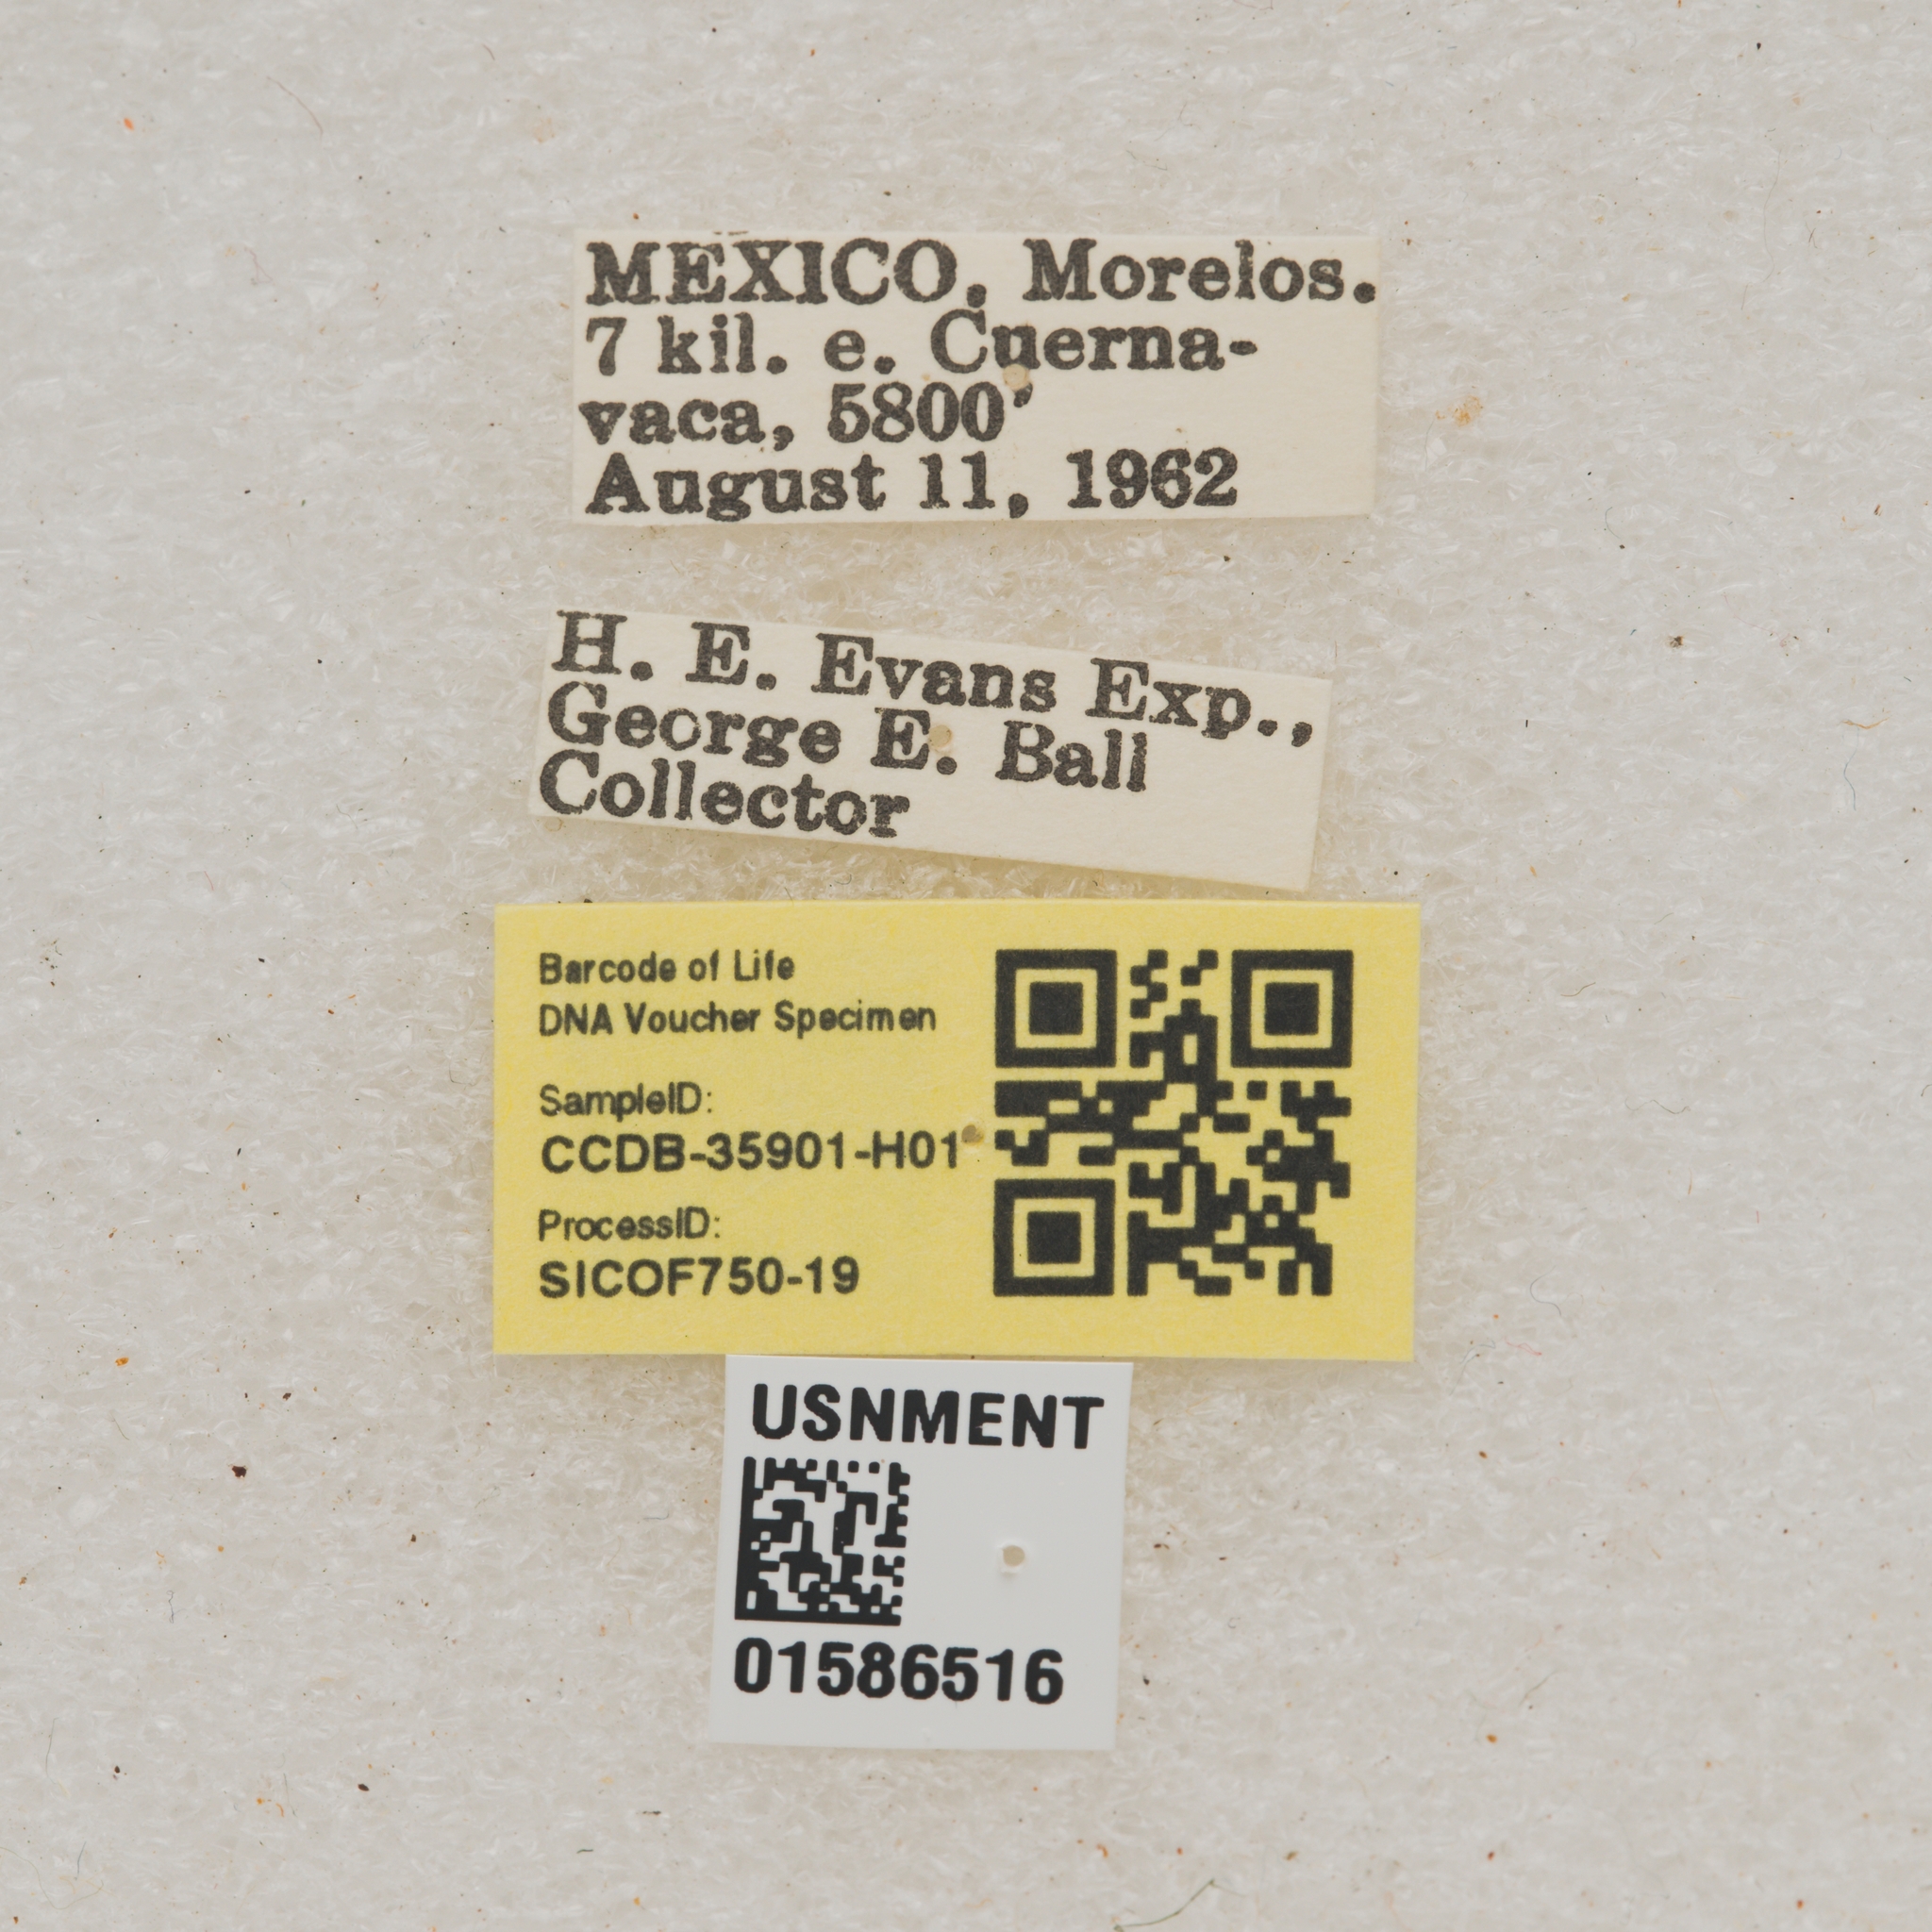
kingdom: Animalia
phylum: Arthropoda
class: Insecta
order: Coleoptera
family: Cerambycidae
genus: Alphomorphus
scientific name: Alphomorphus vandykei
